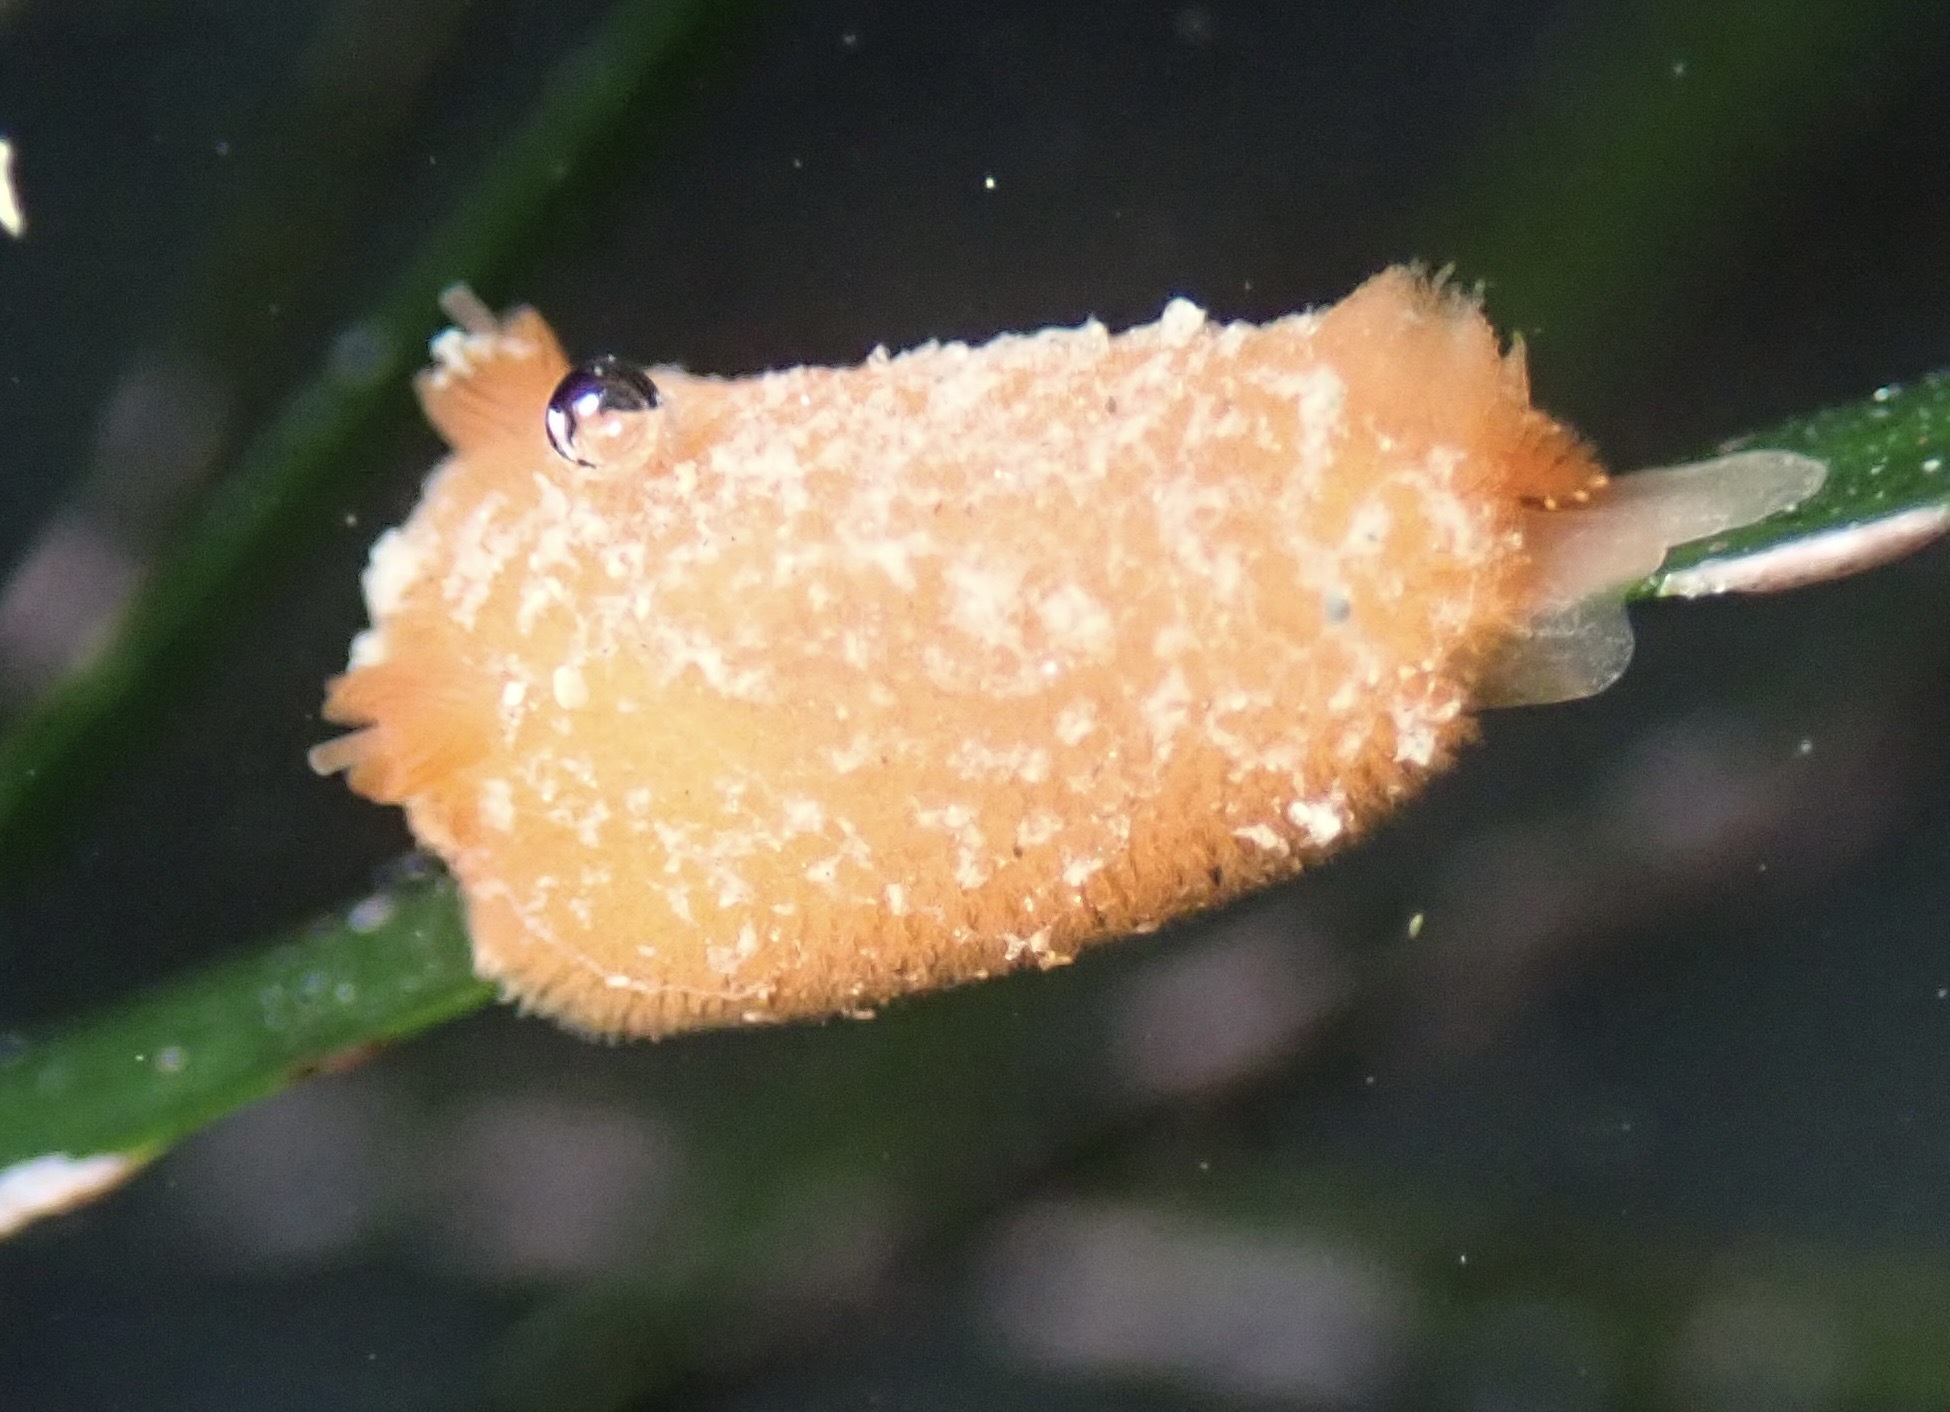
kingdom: Animalia
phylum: Mollusca
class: Gastropoda
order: Nudibranchia
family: Discodorididae
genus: Rostanga
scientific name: Rostanga pulchra
